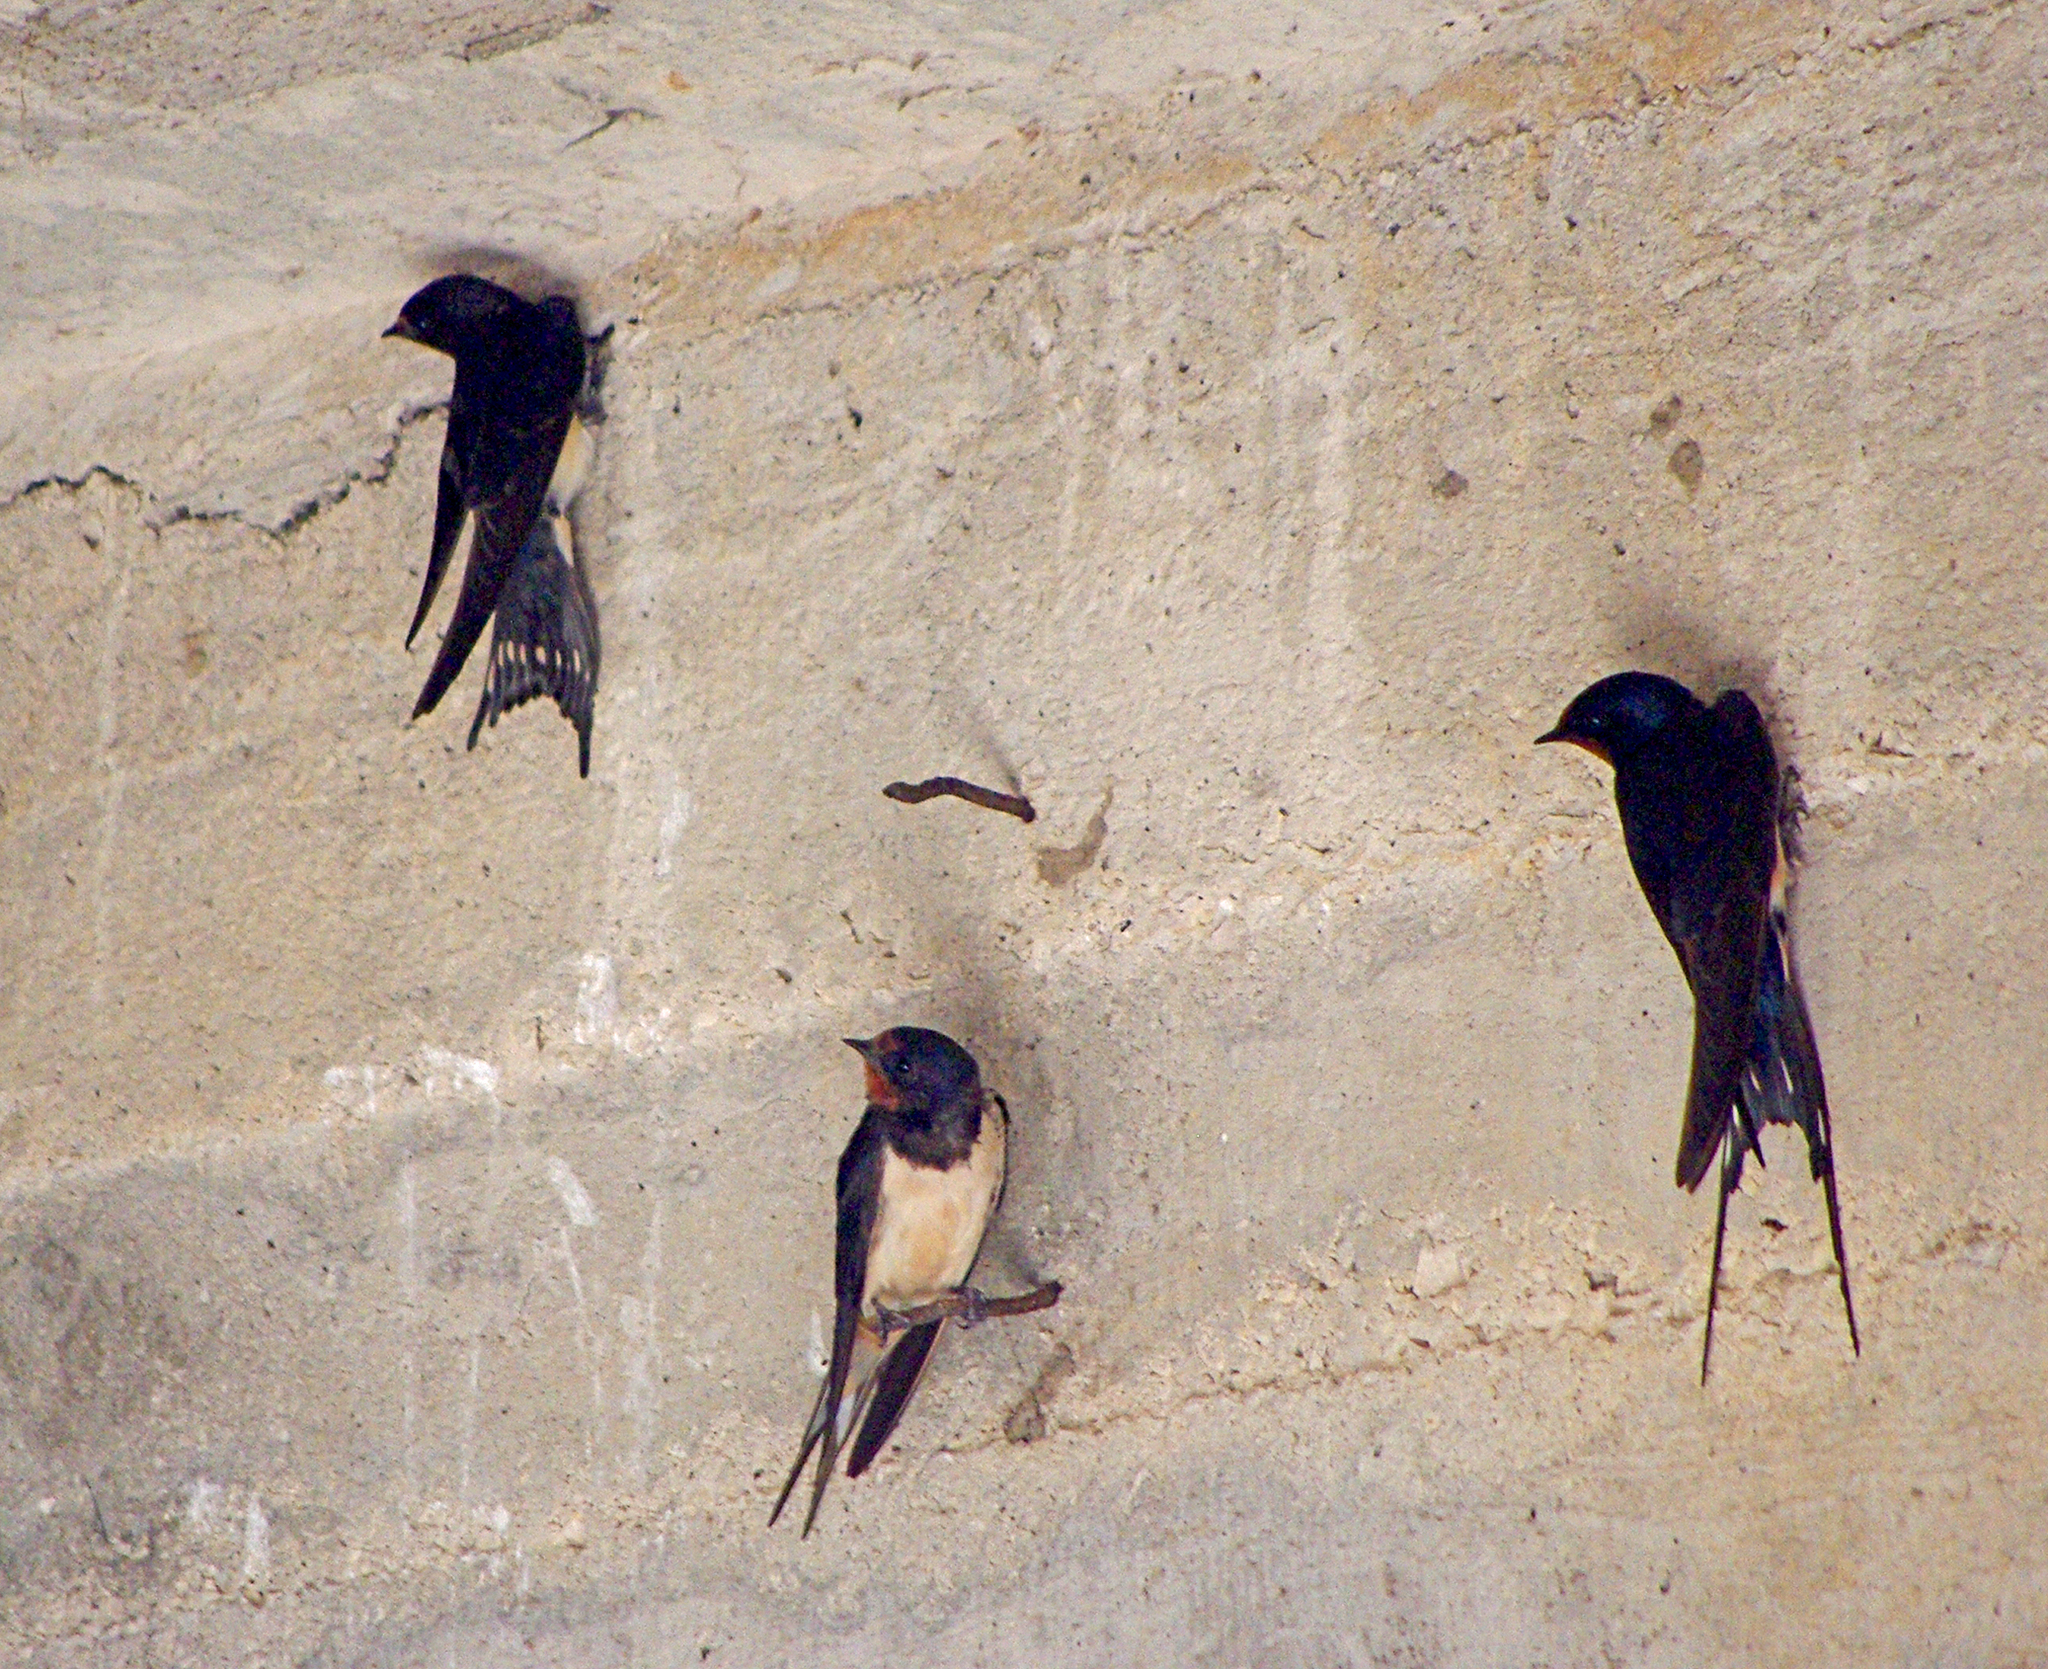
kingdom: Animalia
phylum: Chordata
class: Aves
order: Passeriformes
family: Hirundinidae
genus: Hirundo
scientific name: Hirundo rustica
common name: Barn swallow
